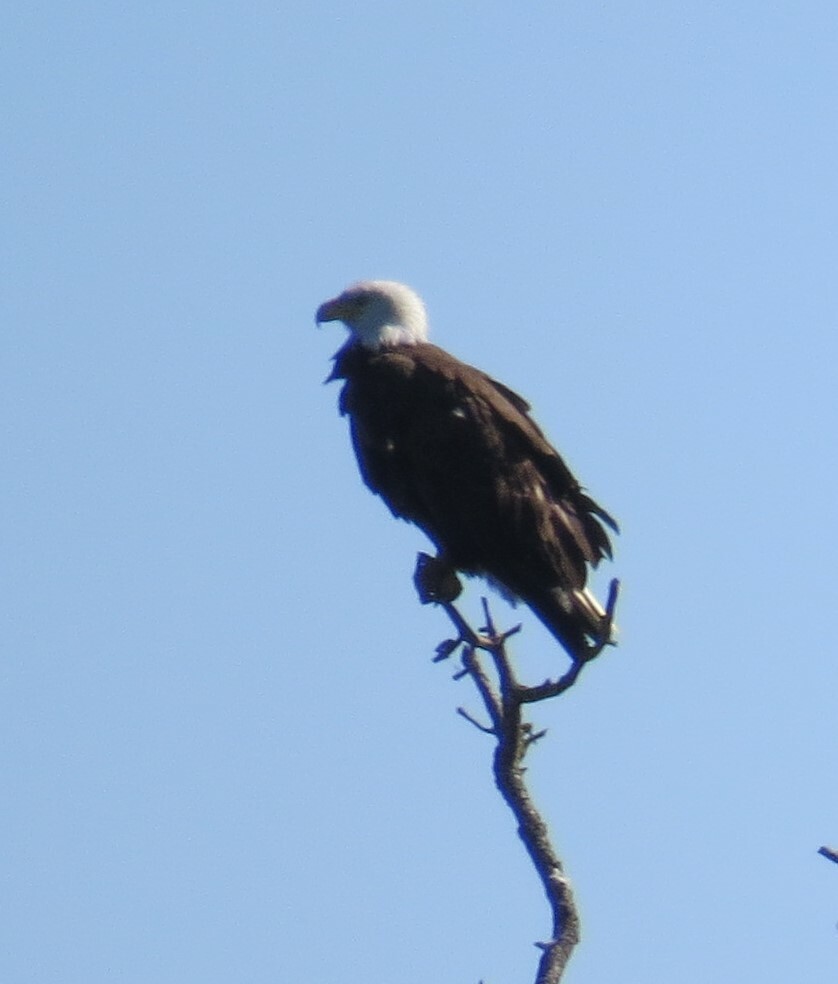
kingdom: Animalia
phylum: Chordata
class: Aves
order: Accipitriformes
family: Accipitridae
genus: Haliaeetus
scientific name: Haliaeetus leucocephalus
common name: Bald eagle
